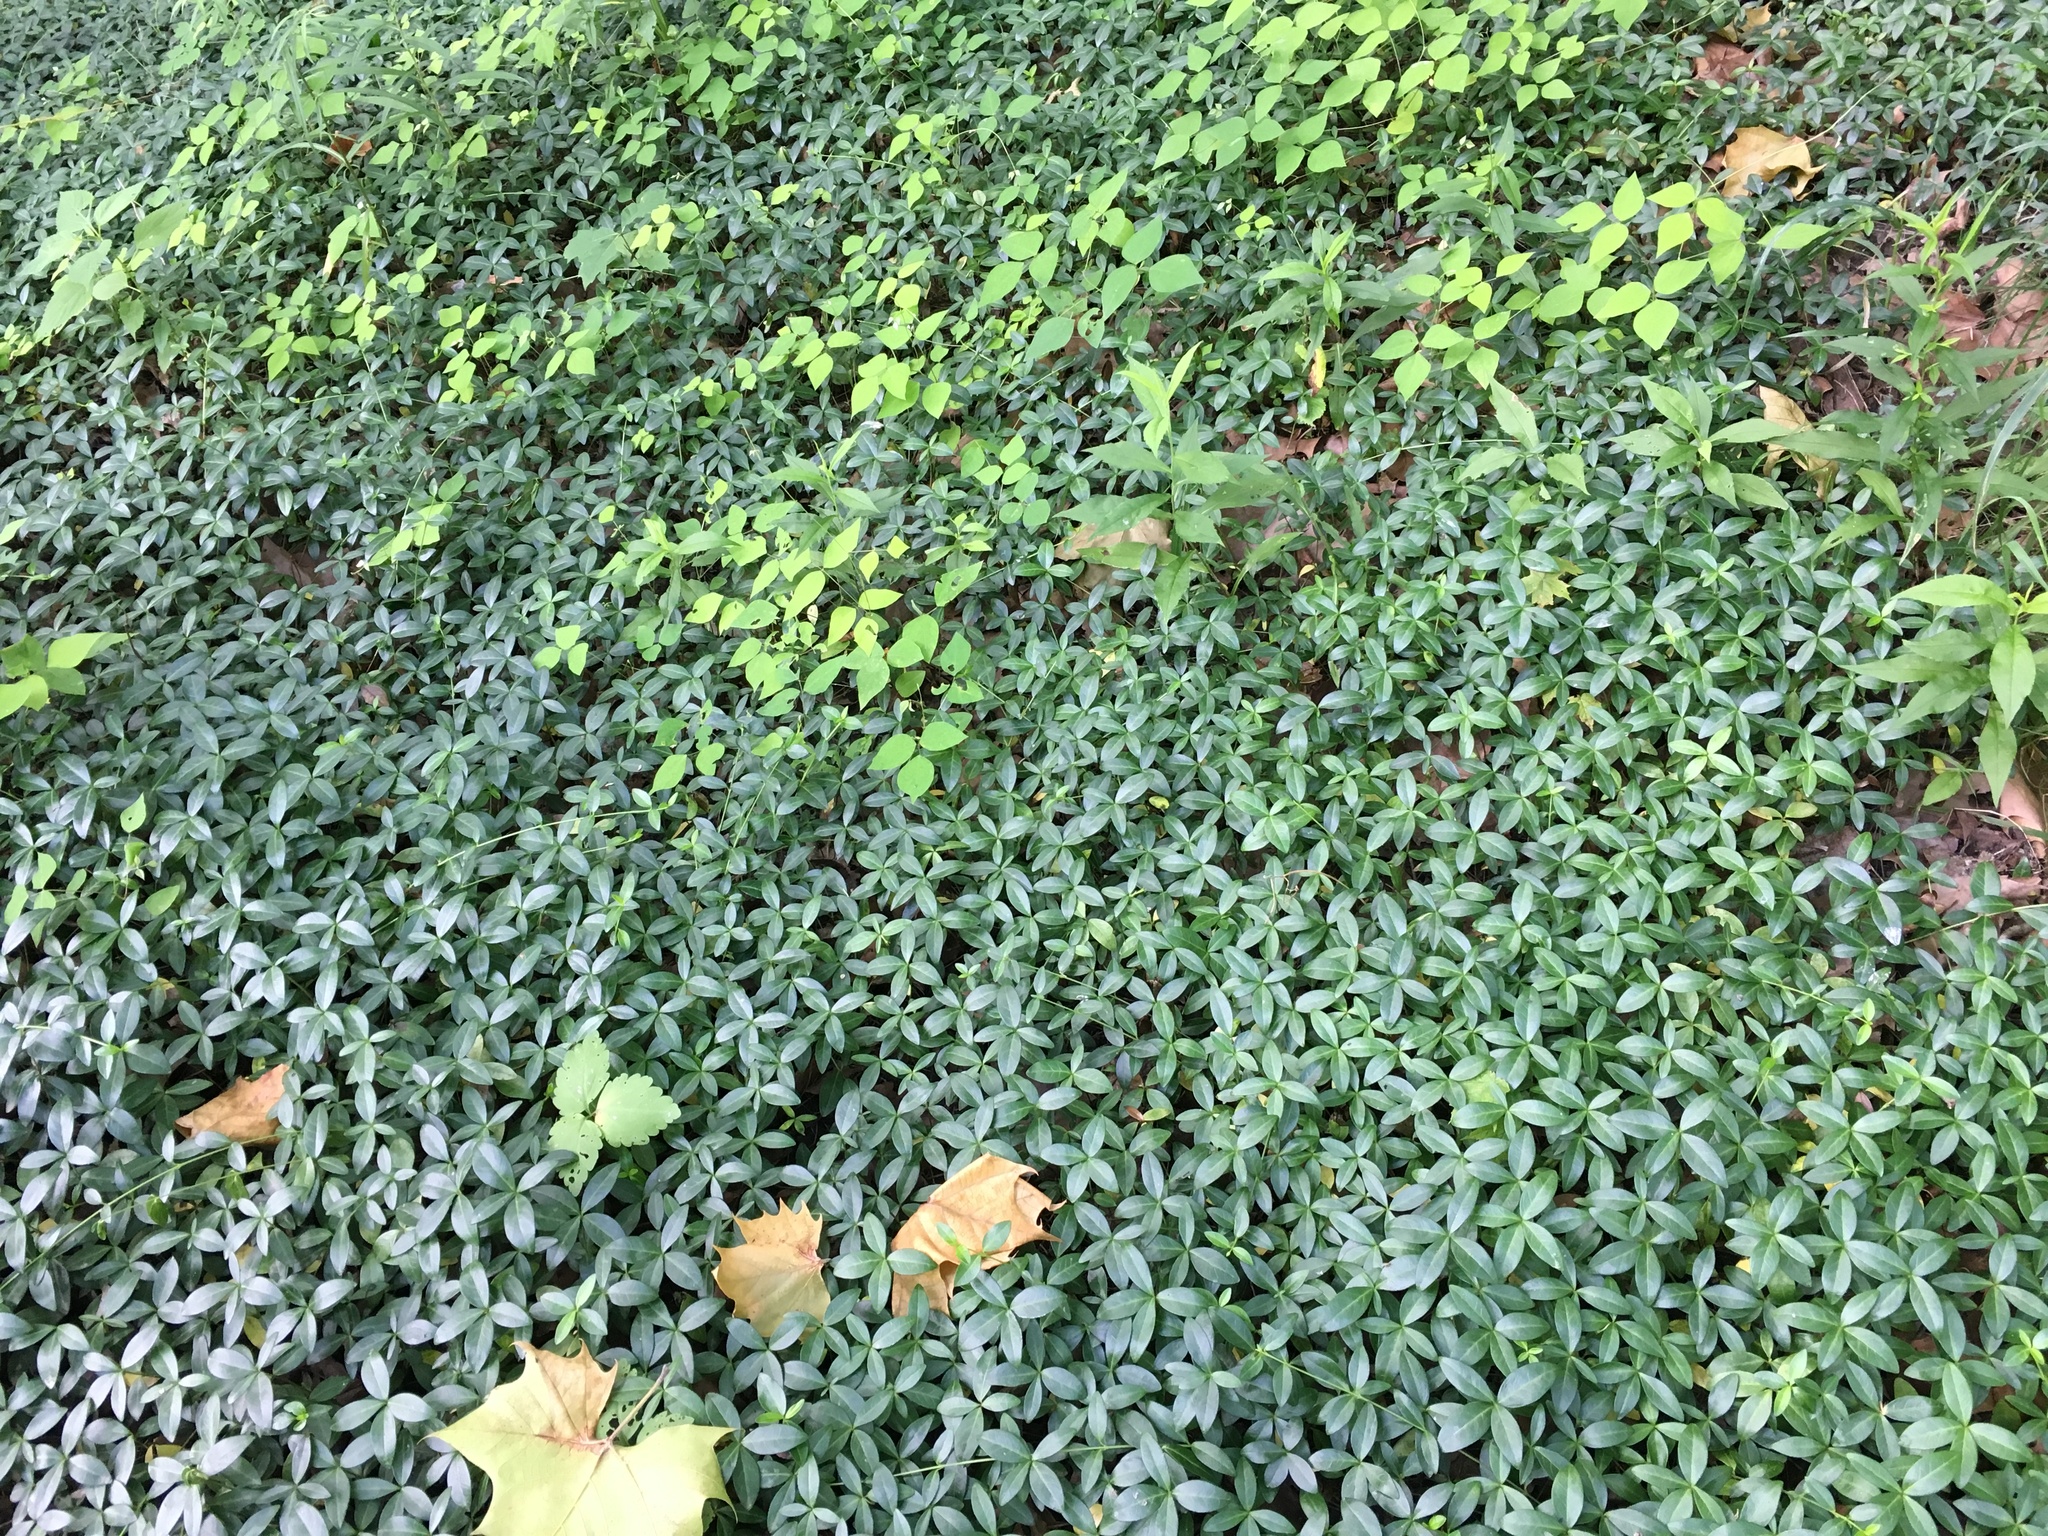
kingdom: Plantae
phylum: Tracheophyta
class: Magnoliopsida
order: Gentianales
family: Apocynaceae
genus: Vinca
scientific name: Vinca minor
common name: Lesser periwinkle
